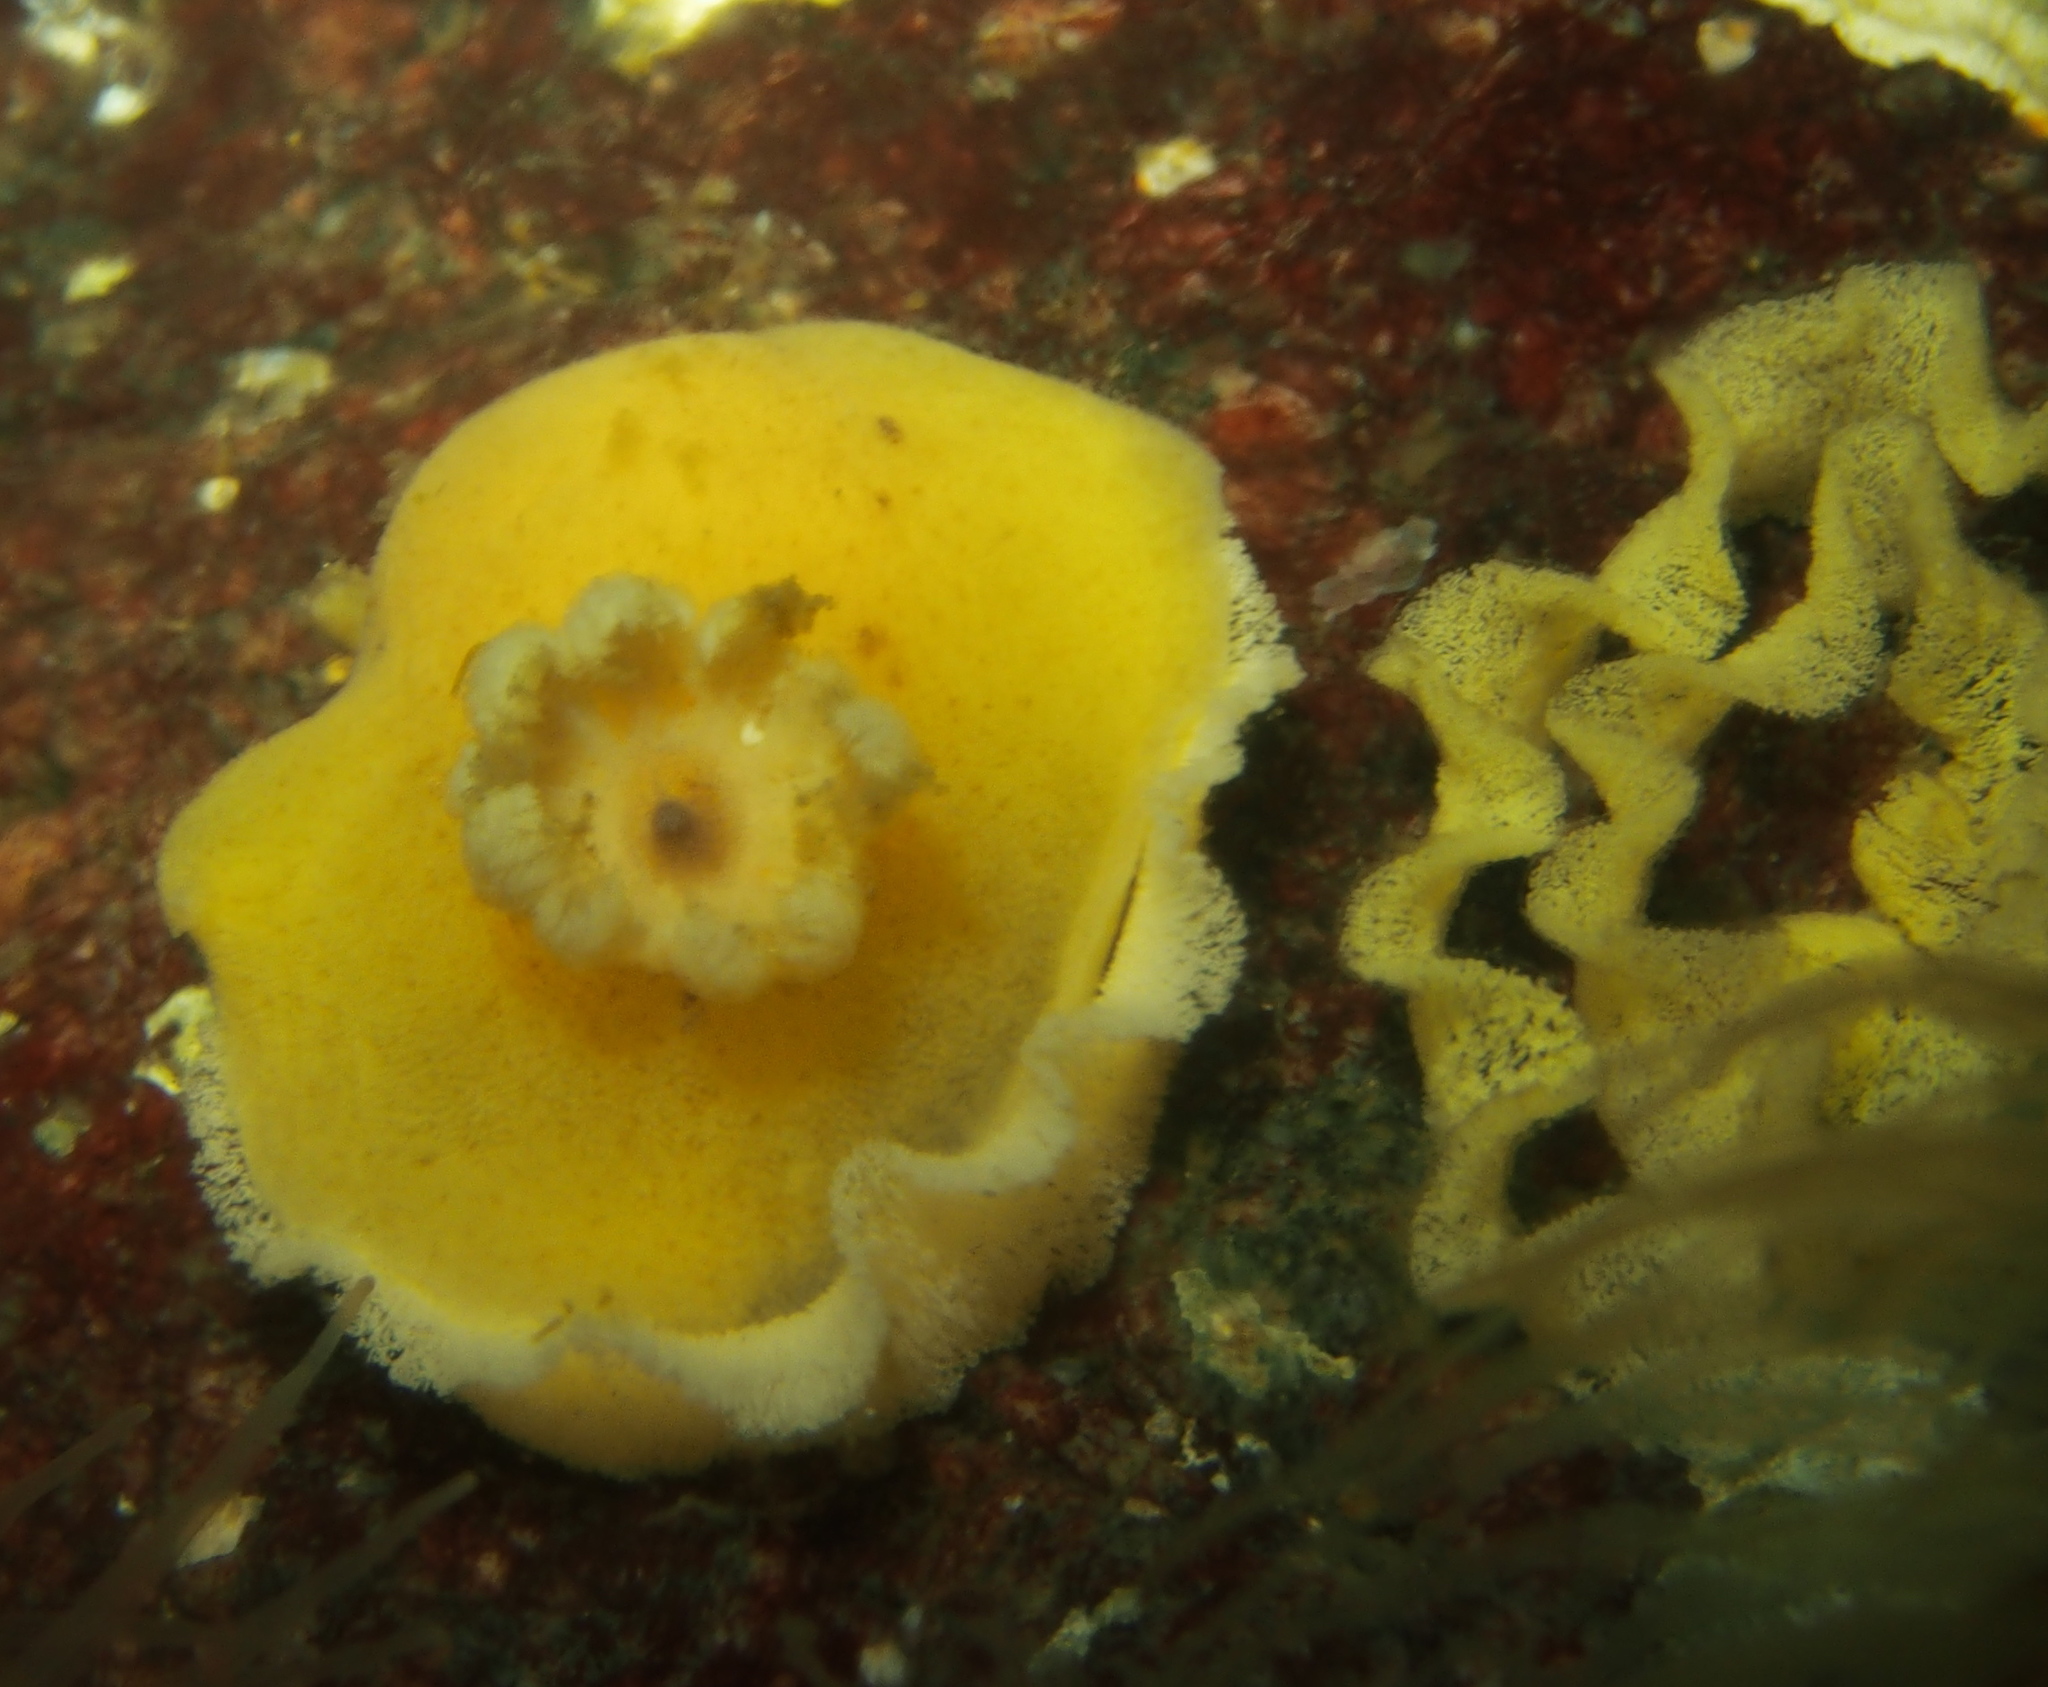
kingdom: Animalia
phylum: Mollusca
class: Gastropoda
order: Nudibranchia
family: Discodorididae
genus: Jorunna
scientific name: Jorunna tomentosa
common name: Grey sea slug
